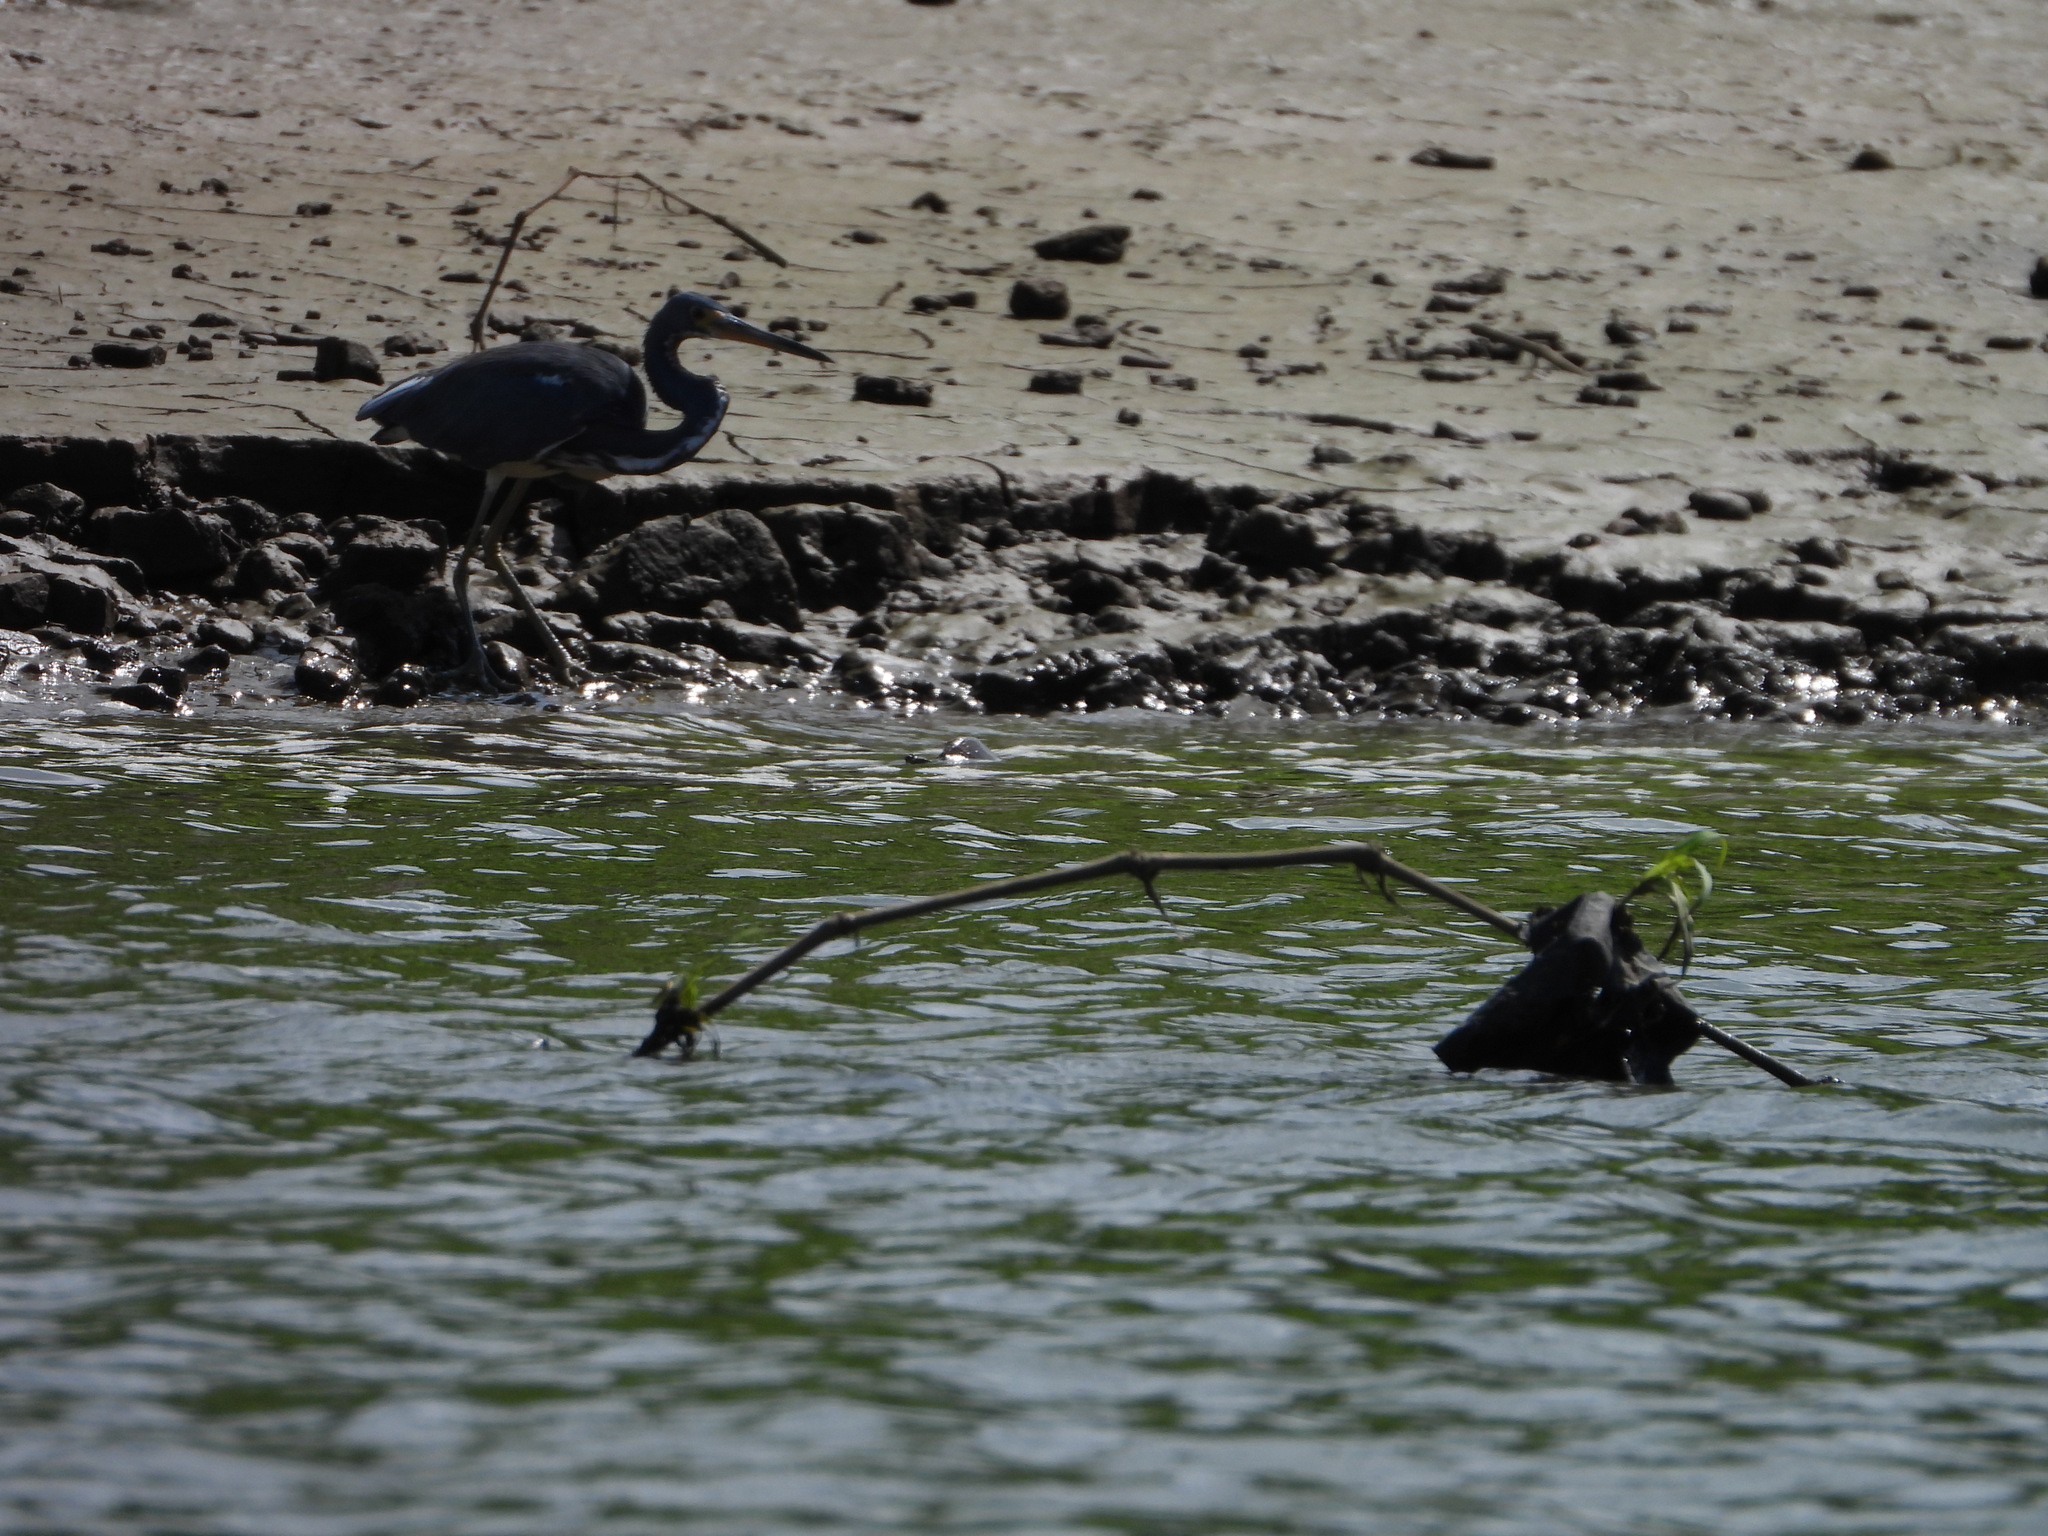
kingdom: Animalia
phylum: Chordata
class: Aves
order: Pelecaniformes
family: Ardeidae
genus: Egretta
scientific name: Egretta tricolor
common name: Tricolored heron
